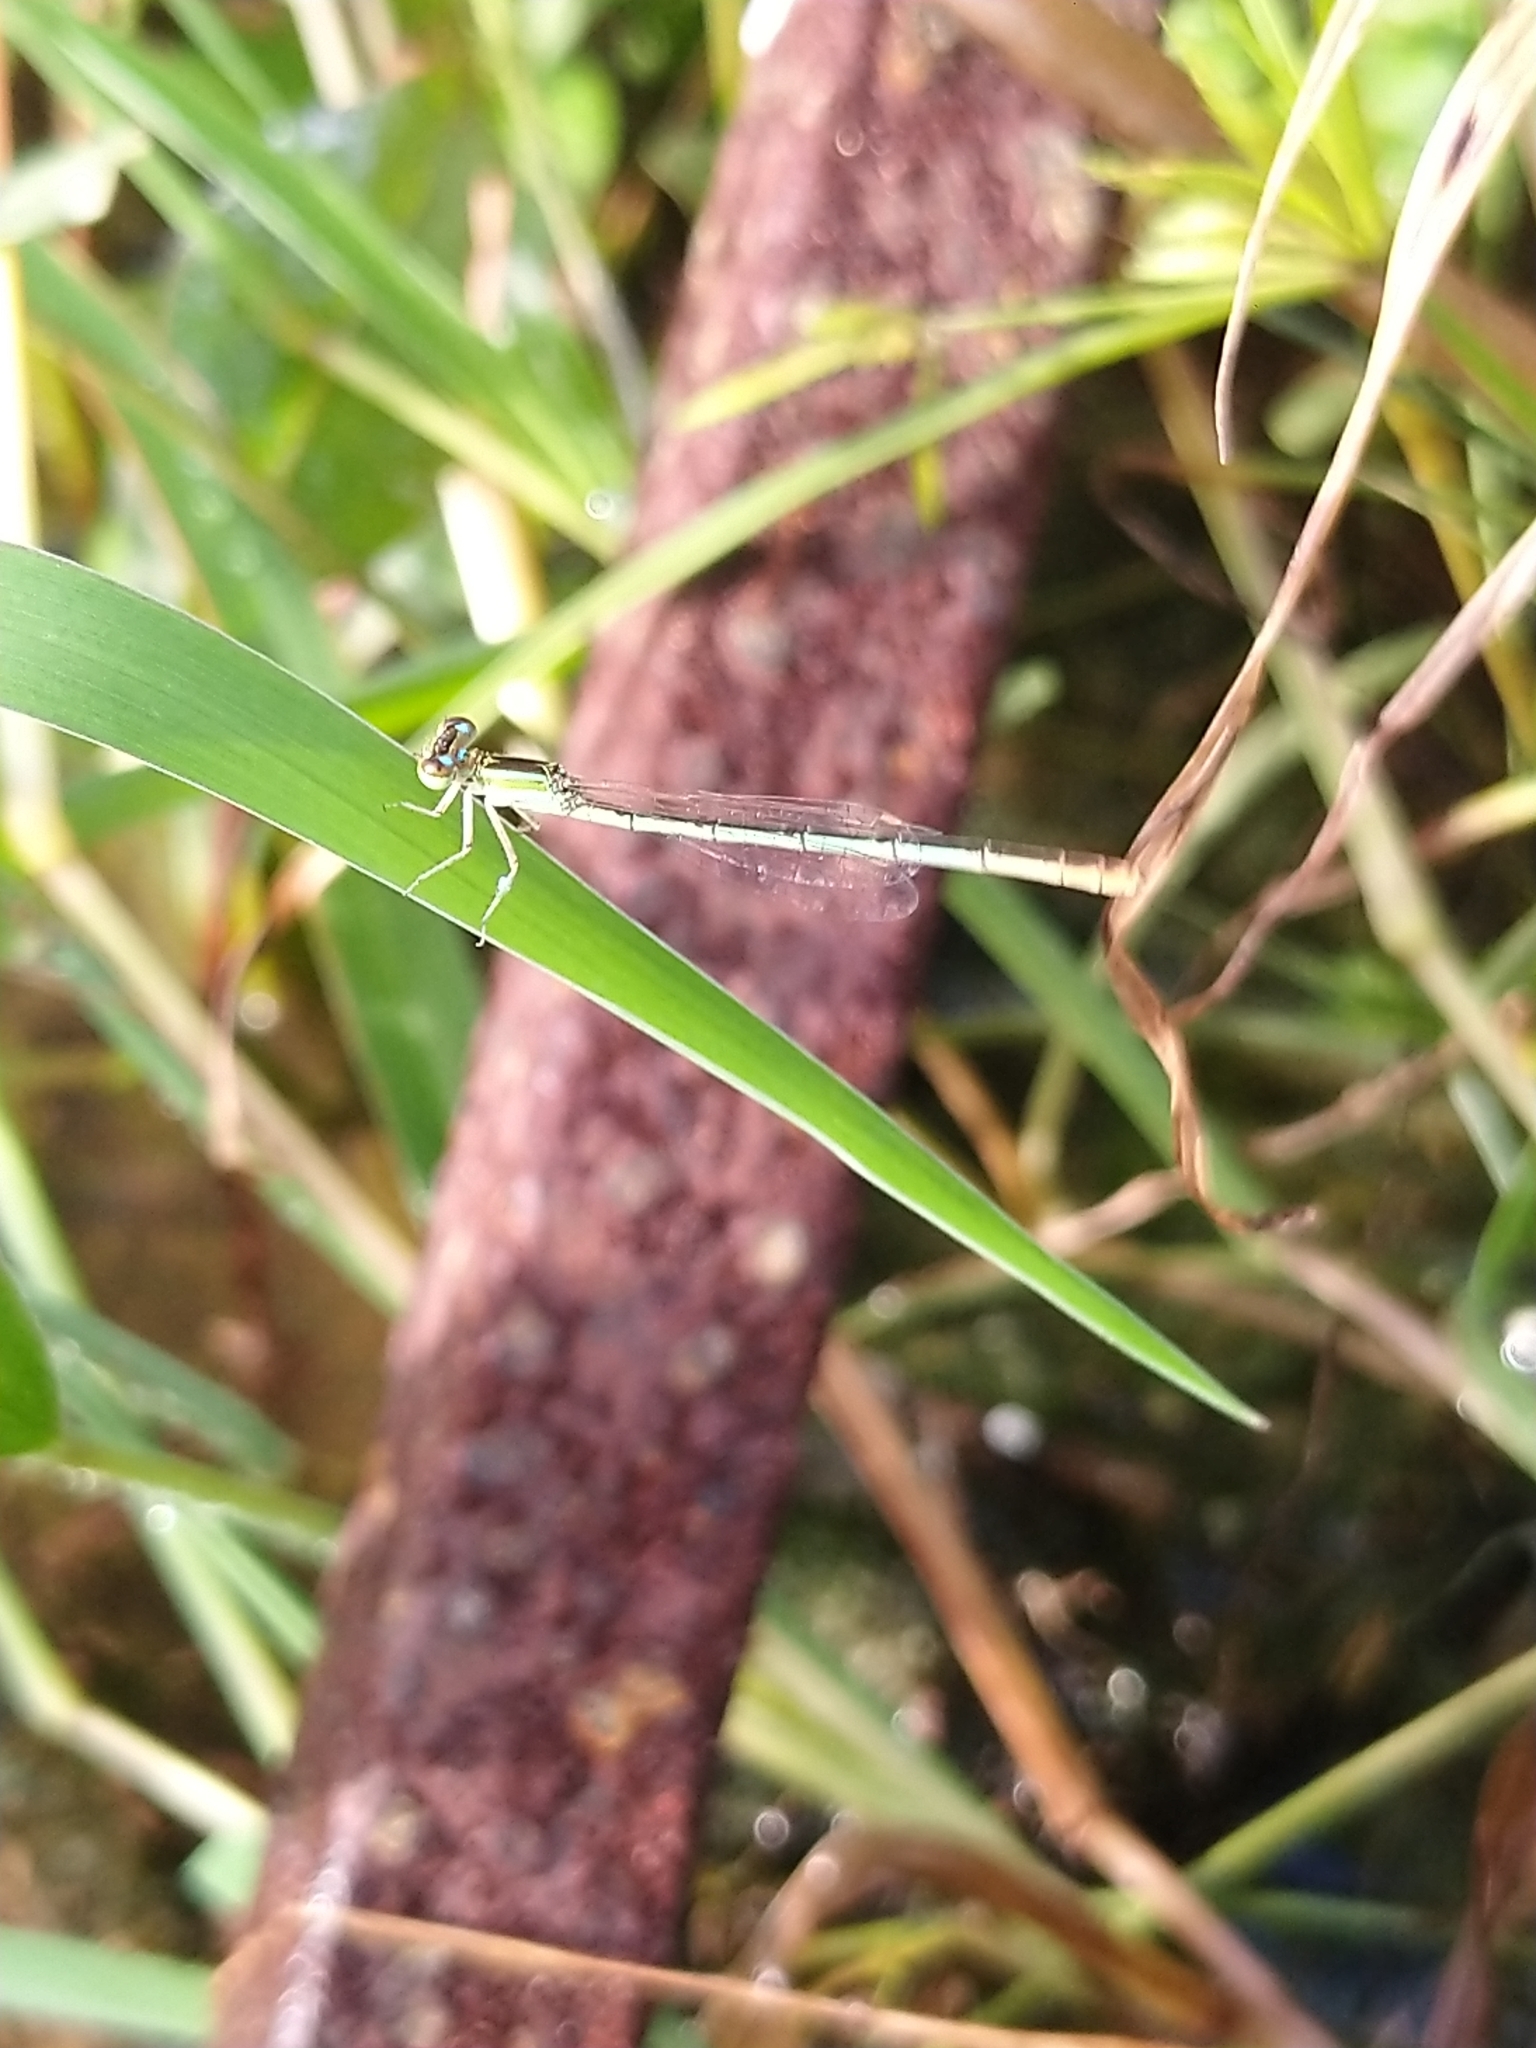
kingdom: Animalia
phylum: Arthropoda
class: Insecta
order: Odonata
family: Coenagrionidae
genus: Agriocnemis
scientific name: Agriocnemis pygmaea
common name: Pygmy wisp
